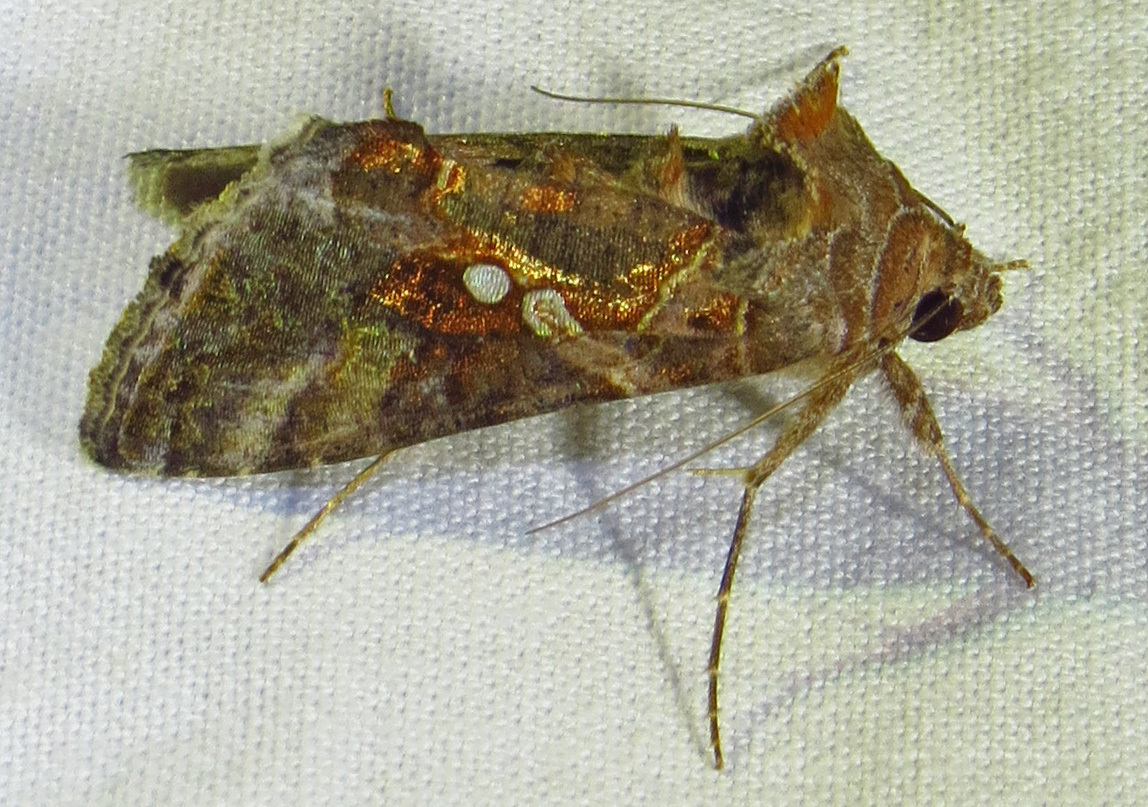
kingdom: Animalia
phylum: Arthropoda
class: Insecta
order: Lepidoptera
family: Noctuidae
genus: Chrysodeixis
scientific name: Chrysodeixis includens
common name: Cutworm moth
